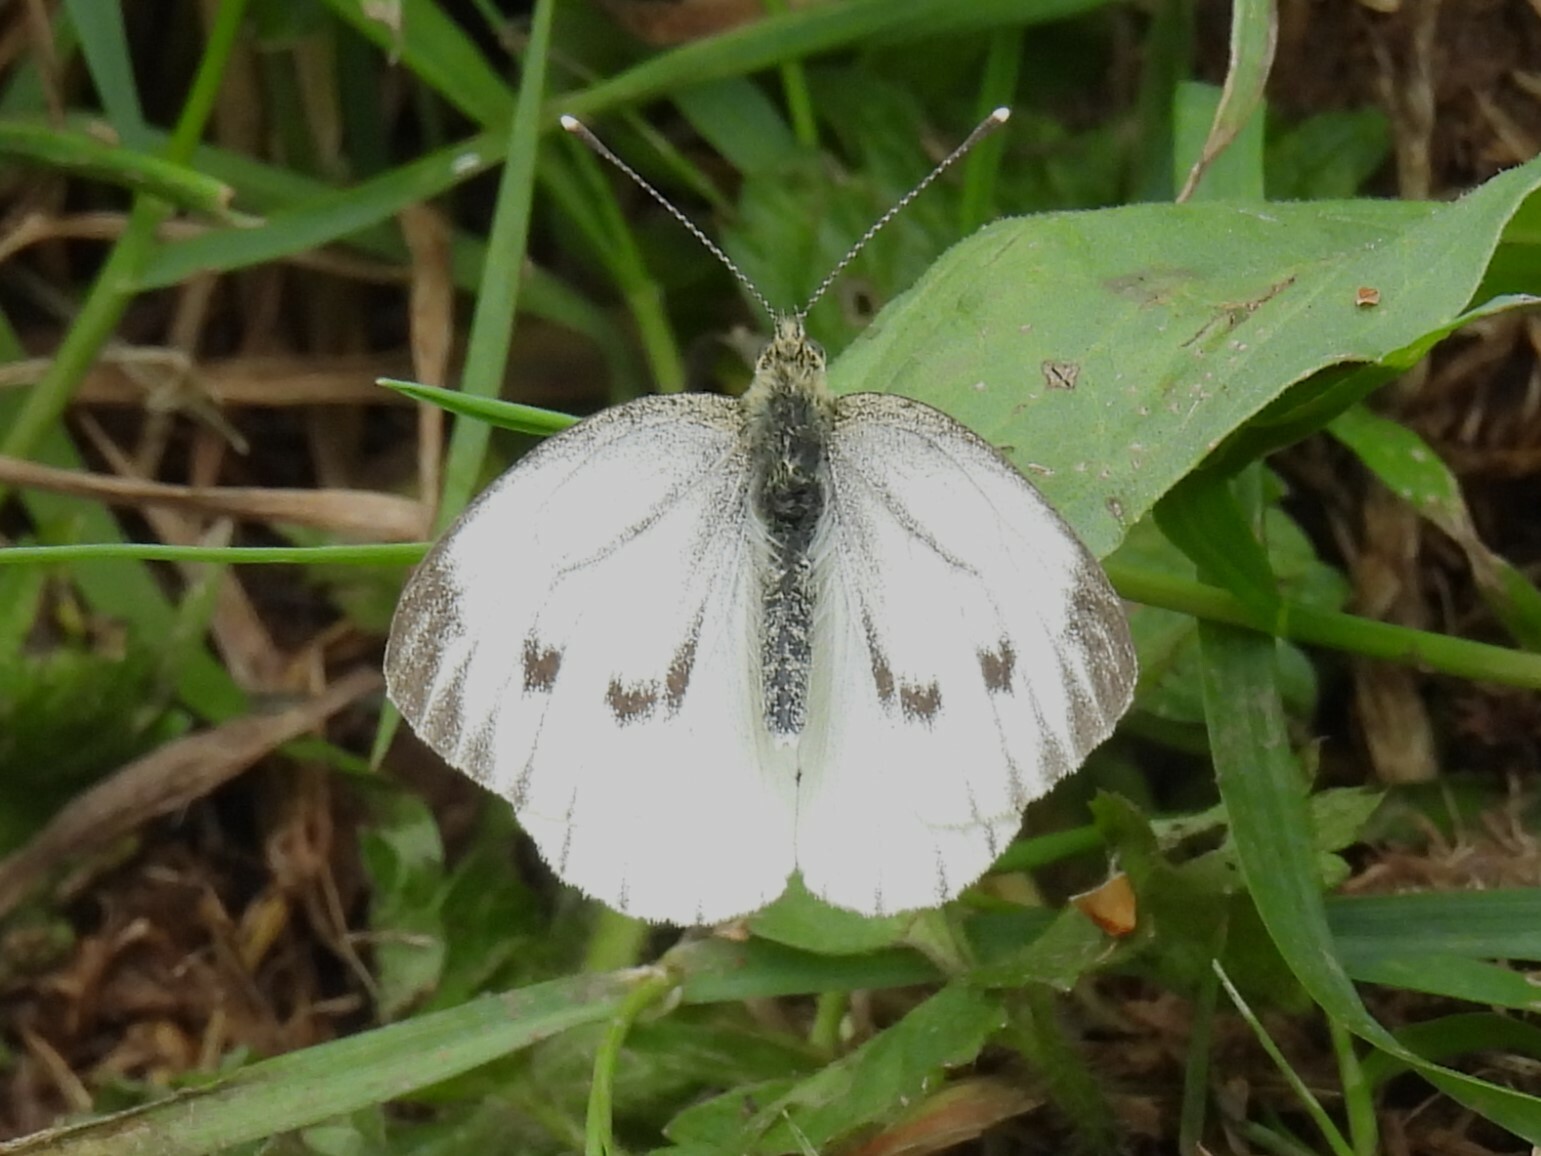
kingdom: Animalia
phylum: Arthropoda
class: Insecta
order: Lepidoptera
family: Pieridae
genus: Pieris
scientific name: Pieris napi
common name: Green-veined white
